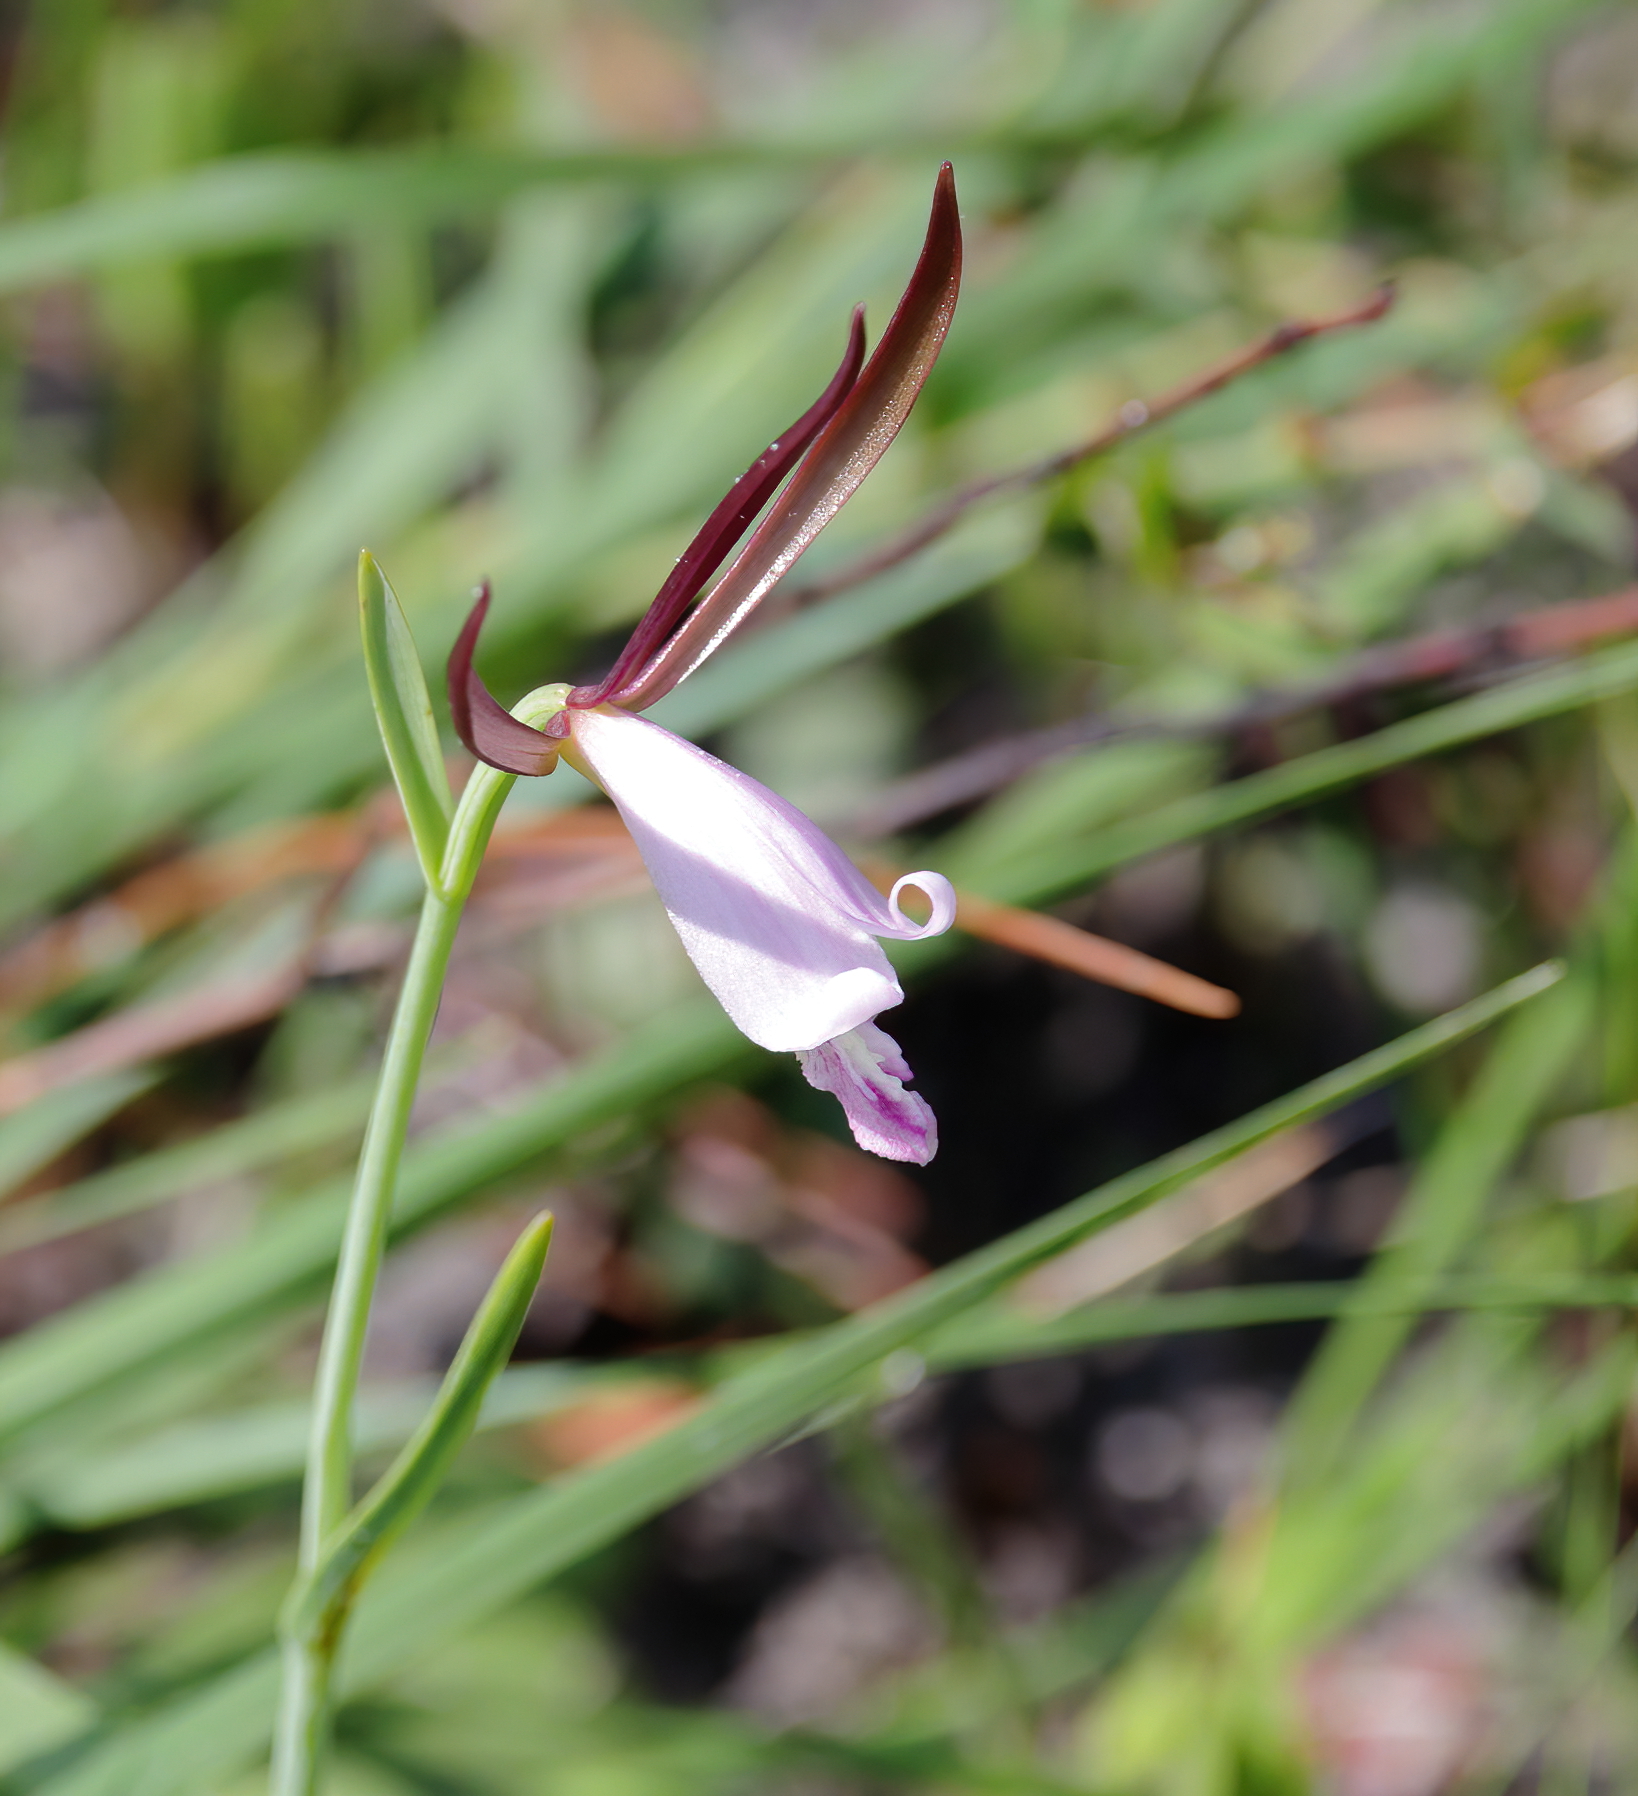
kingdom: Plantae
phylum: Tracheophyta
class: Liliopsida
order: Asparagales
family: Orchidaceae
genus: Cleistesiopsis
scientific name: Cleistesiopsis oricamporum
